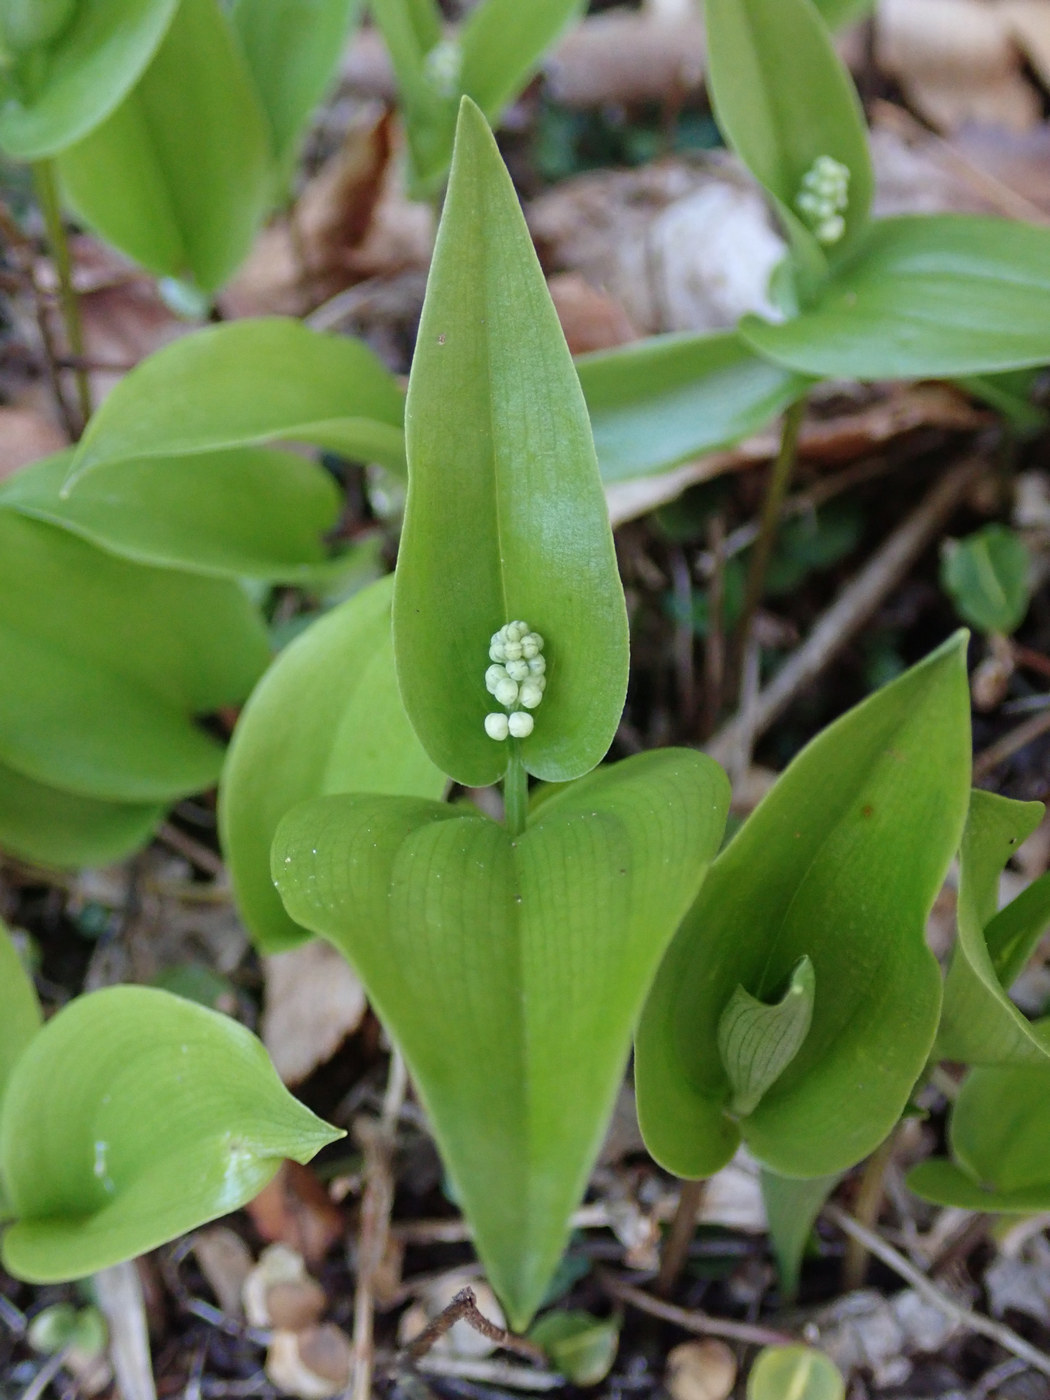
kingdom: Plantae
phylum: Tracheophyta
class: Liliopsida
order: Asparagales
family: Asparagaceae
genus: Maianthemum
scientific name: Maianthemum canadense
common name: False lily-of-the-valley
